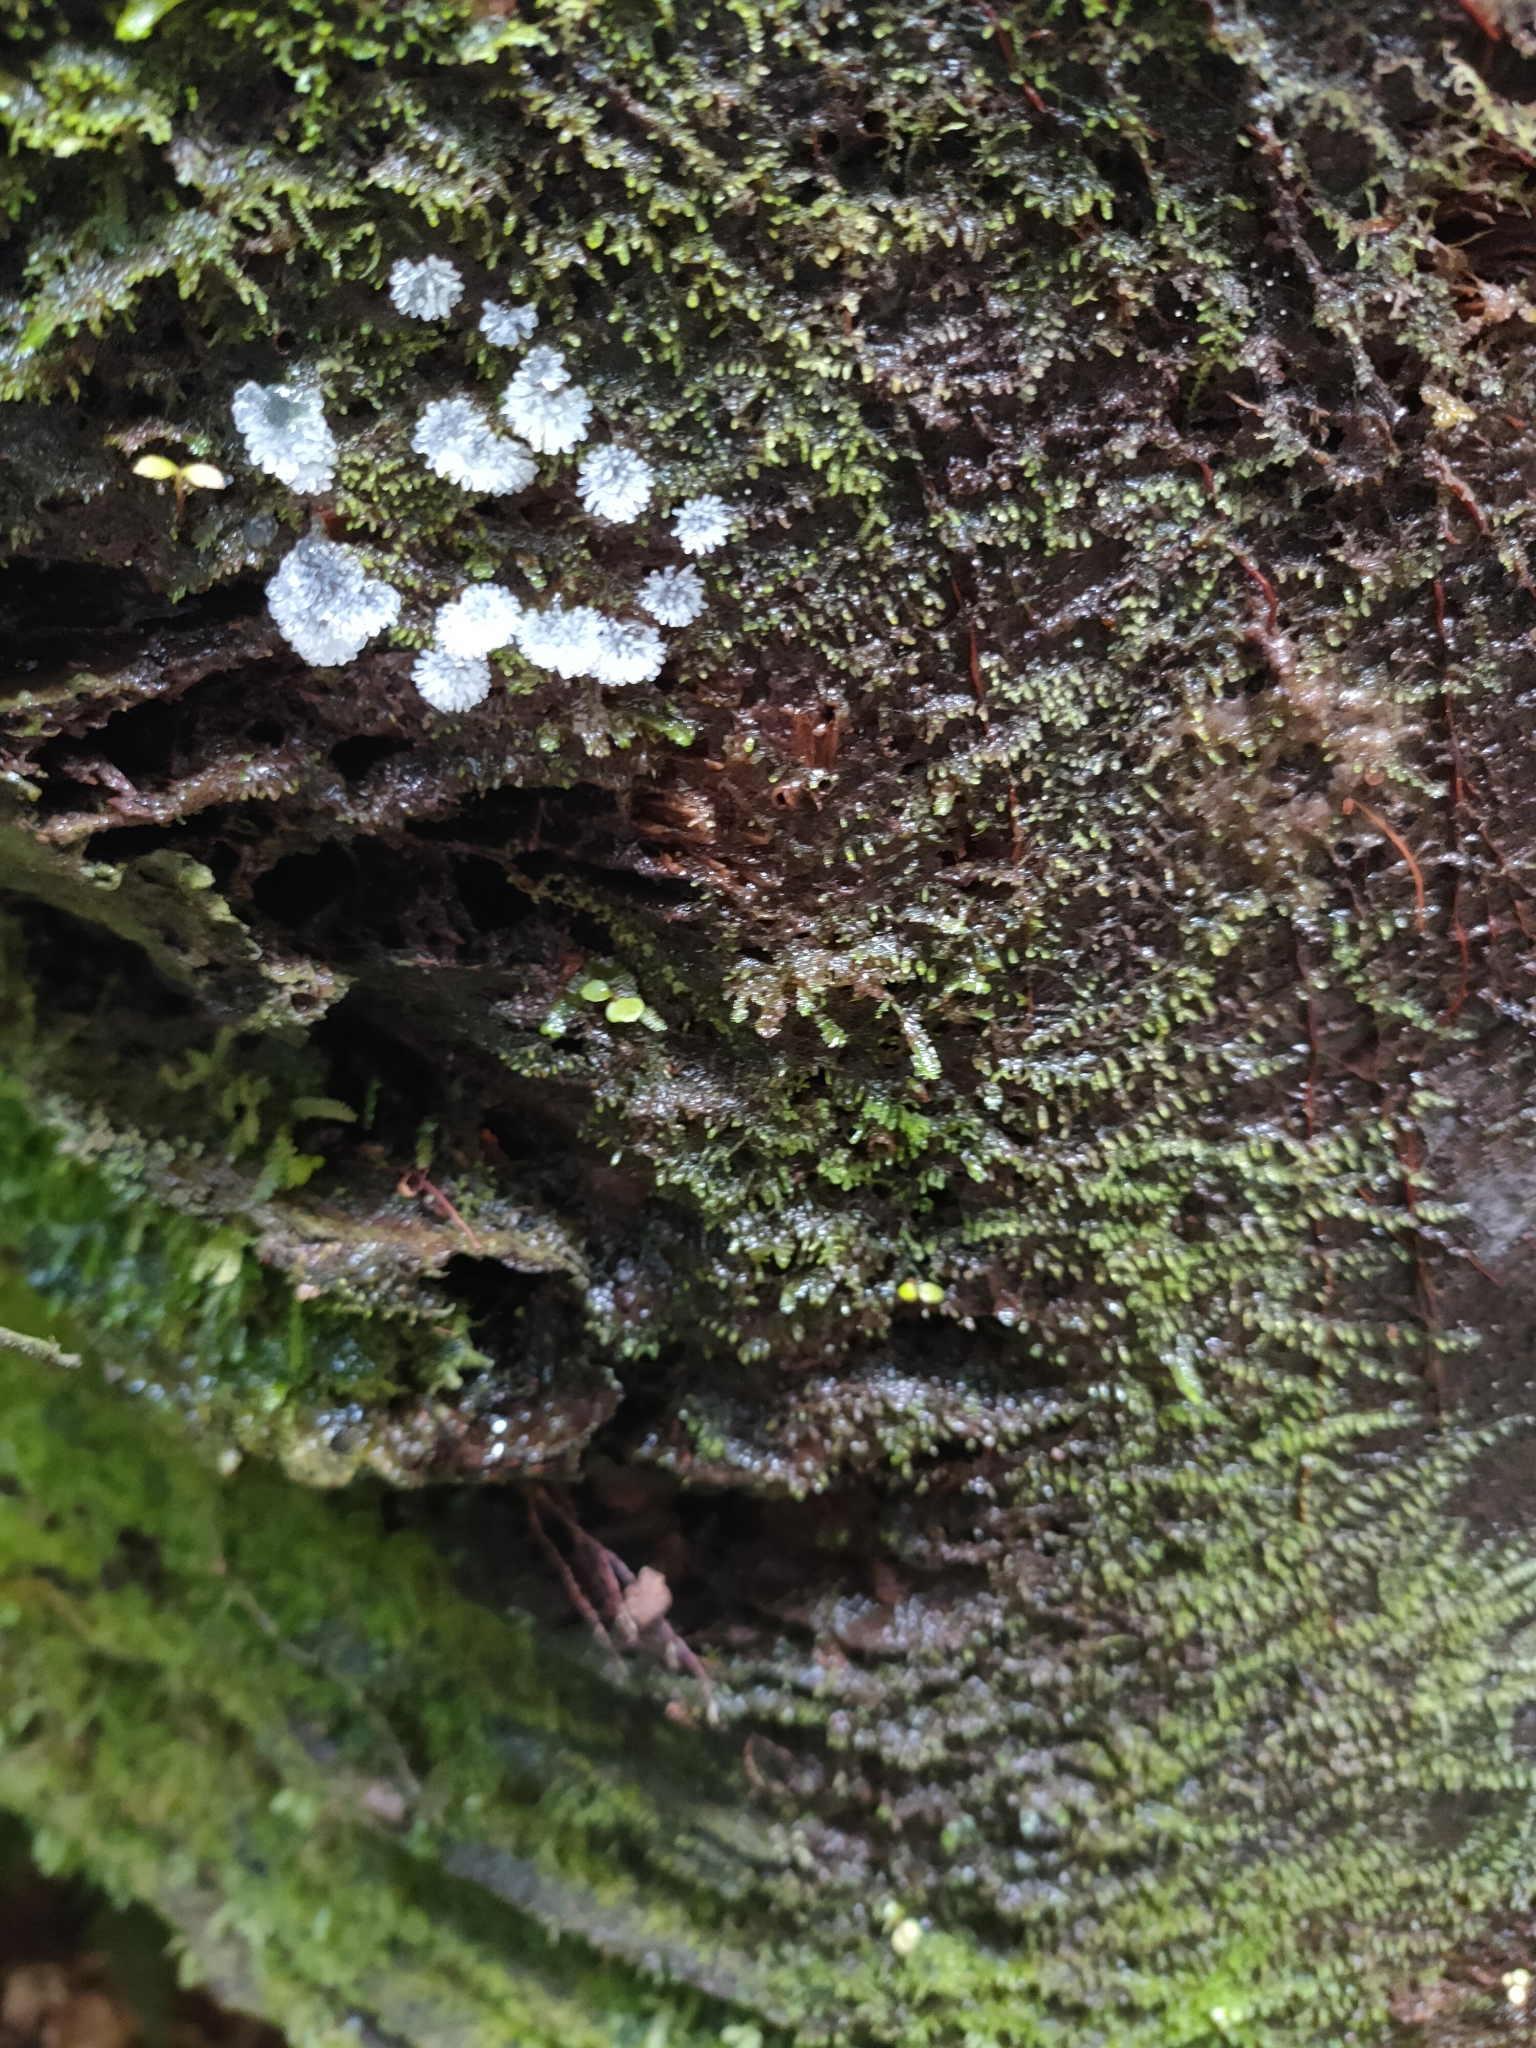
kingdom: Protozoa
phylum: Mycetozoa
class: Protosteliomycetes
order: Ceratiomyxales
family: Ceratiomyxaceae
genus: Ceratiomyxa
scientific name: Ceratiomyxa fruticulosa
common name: Honeycomb coral slime mold
